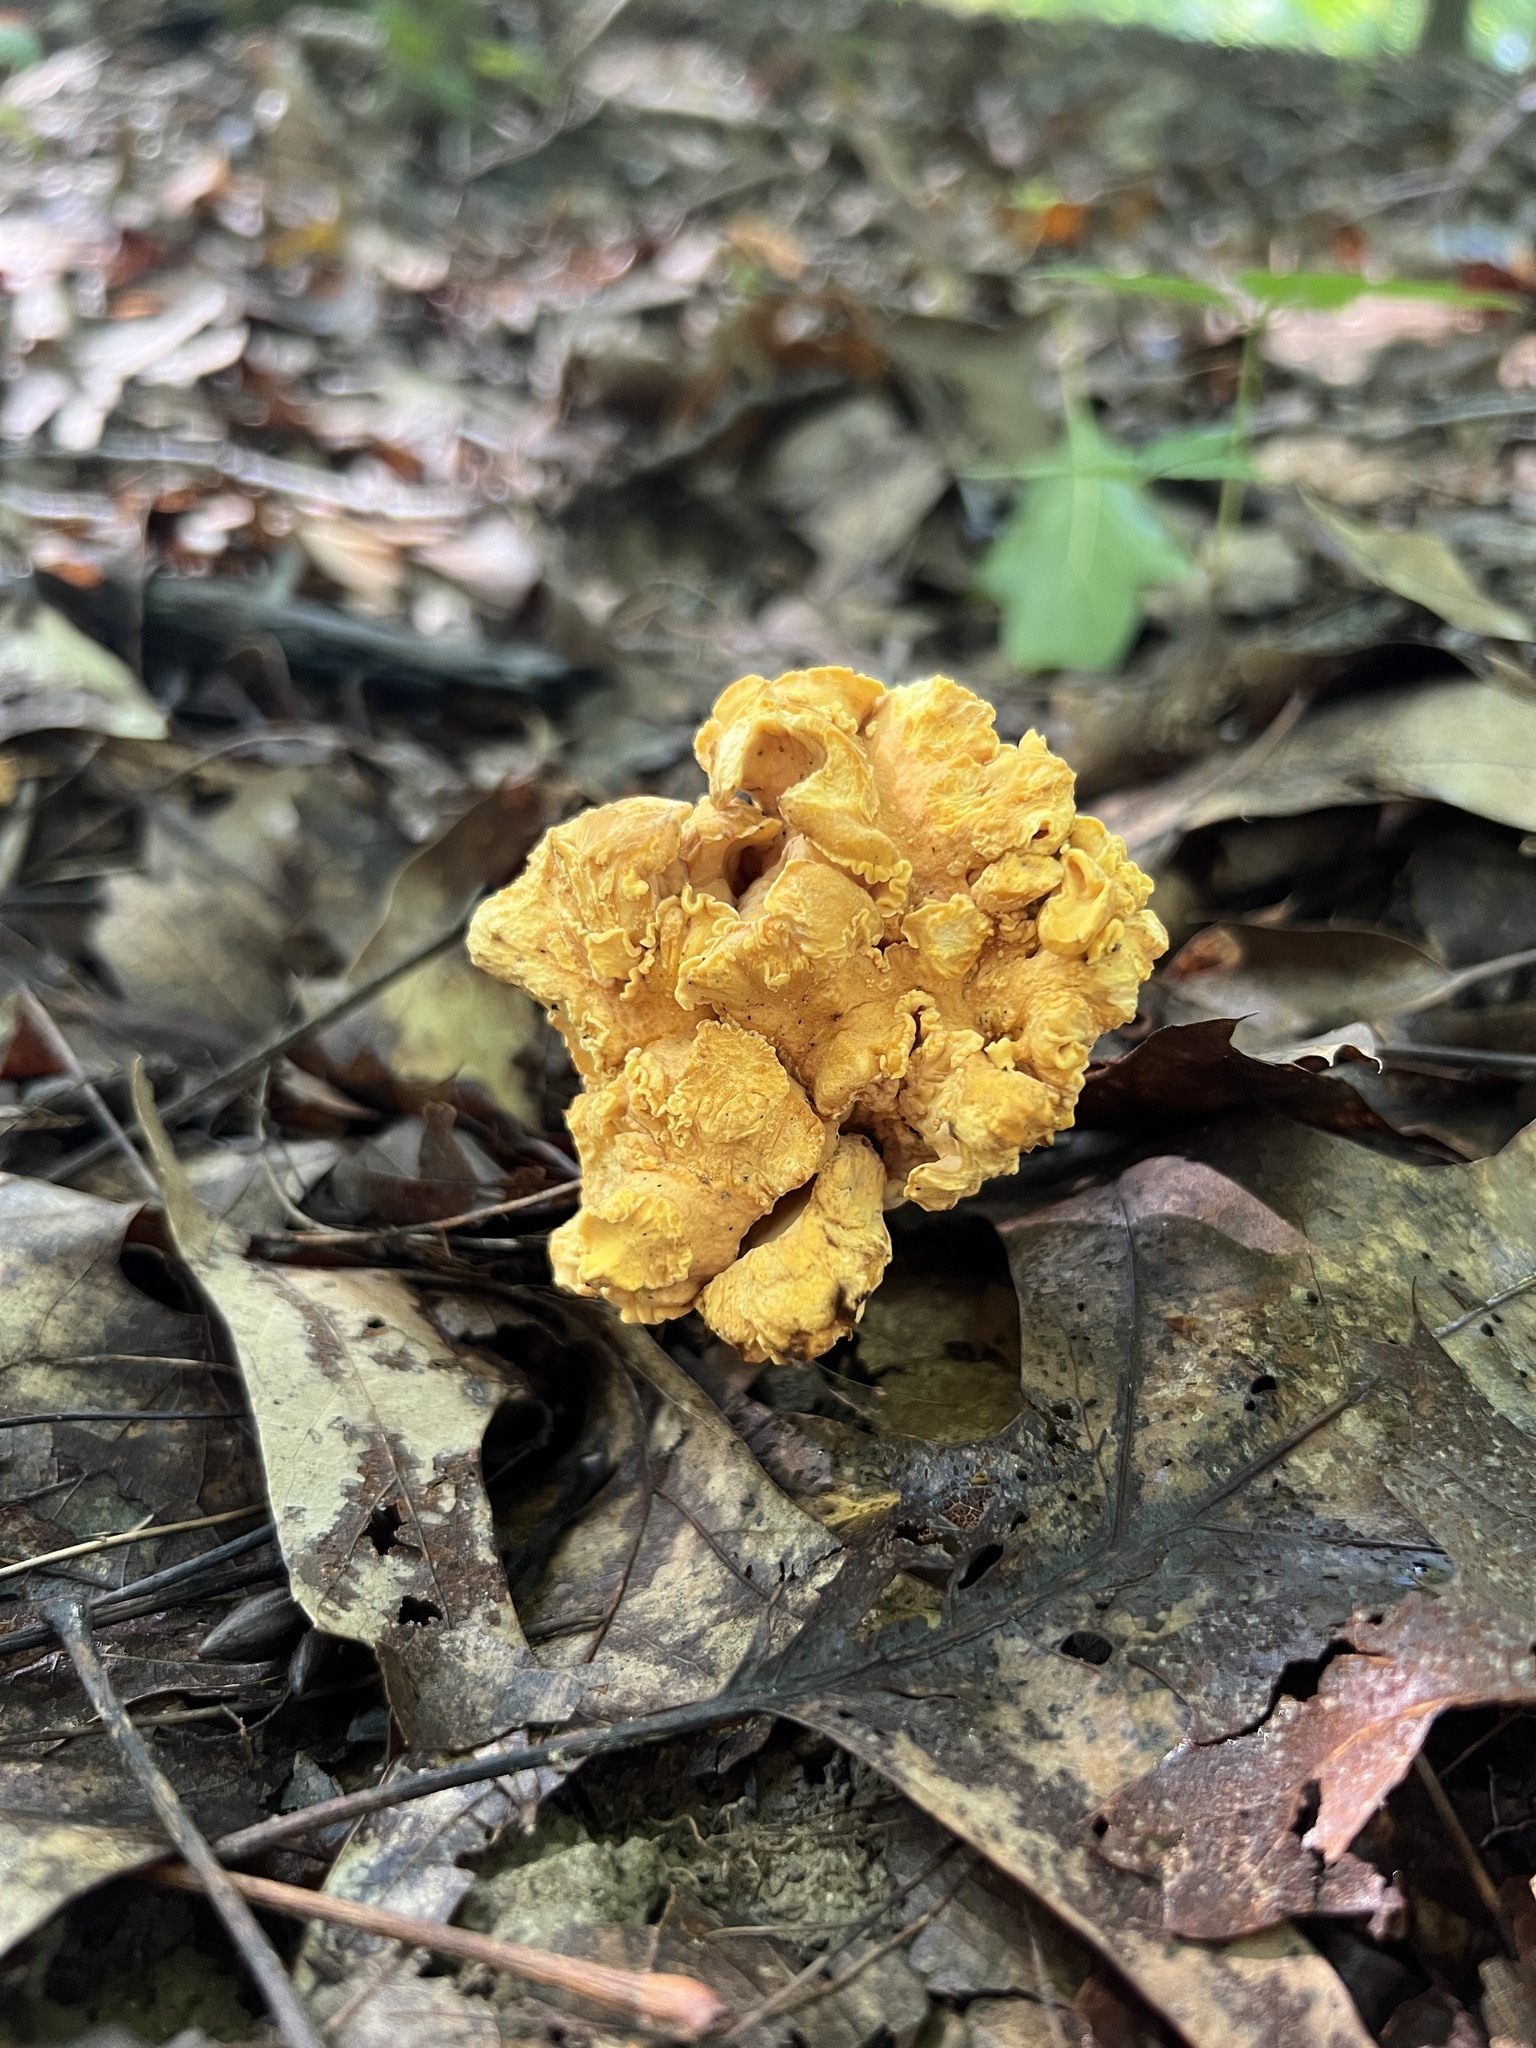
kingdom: Fungi
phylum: Basidiomycota
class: Agaricomycetes
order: Cantharellales
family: Hydnaceae
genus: Cantharellus
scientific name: Cantharellus flavolateritius
